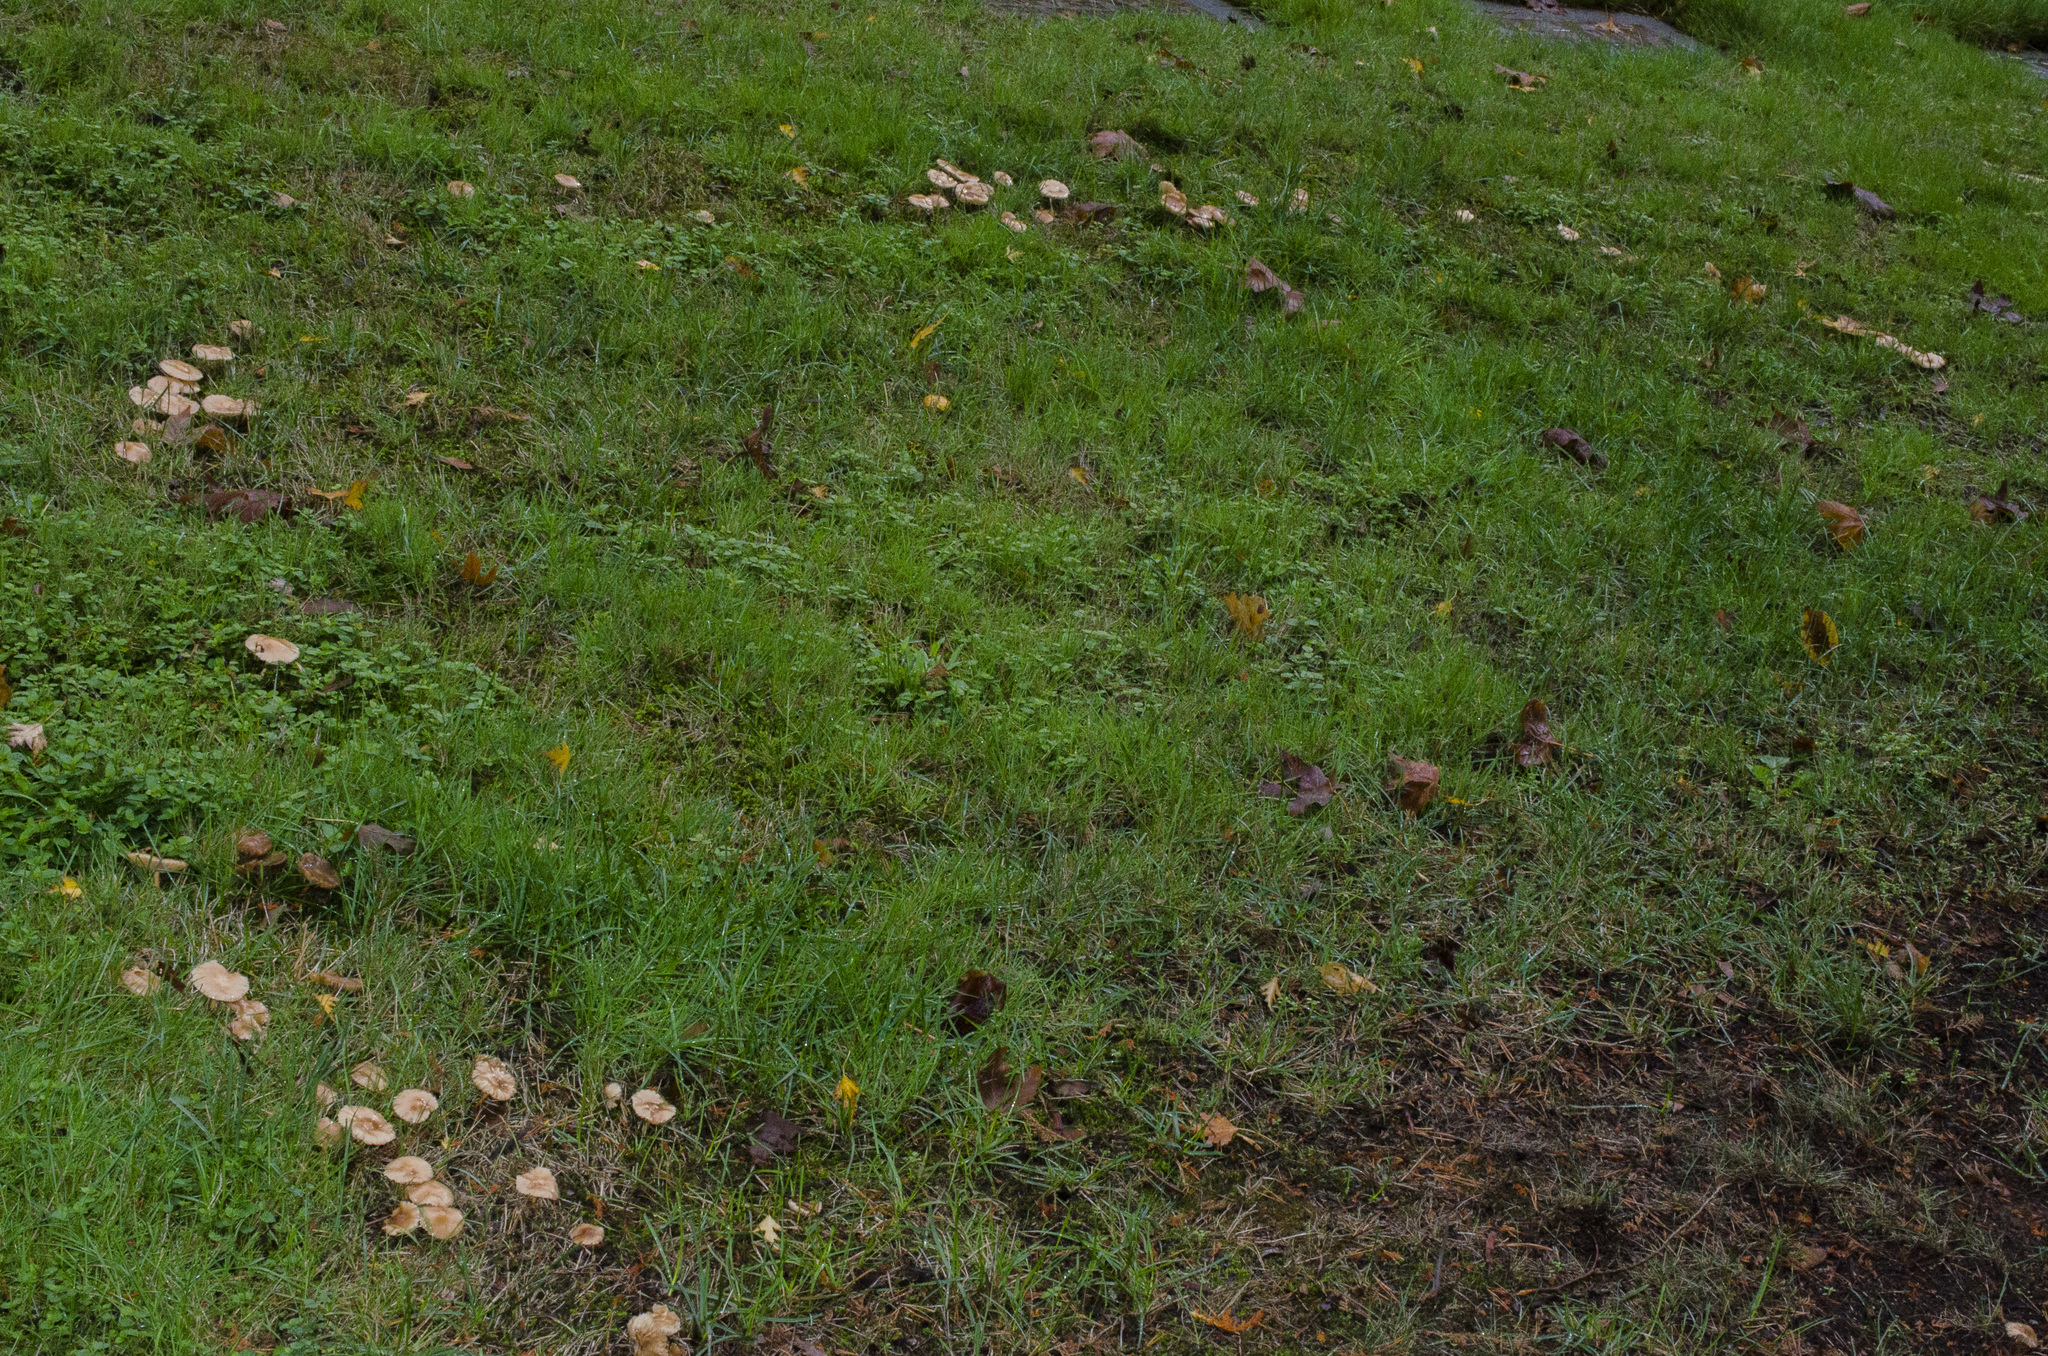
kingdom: Fungi
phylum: Basidiomycota
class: Agaricomycetes
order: Agaricales
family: Marasmiaceae
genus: Marasmius
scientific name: Marasmius oreades
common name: Fairy ring champignon
